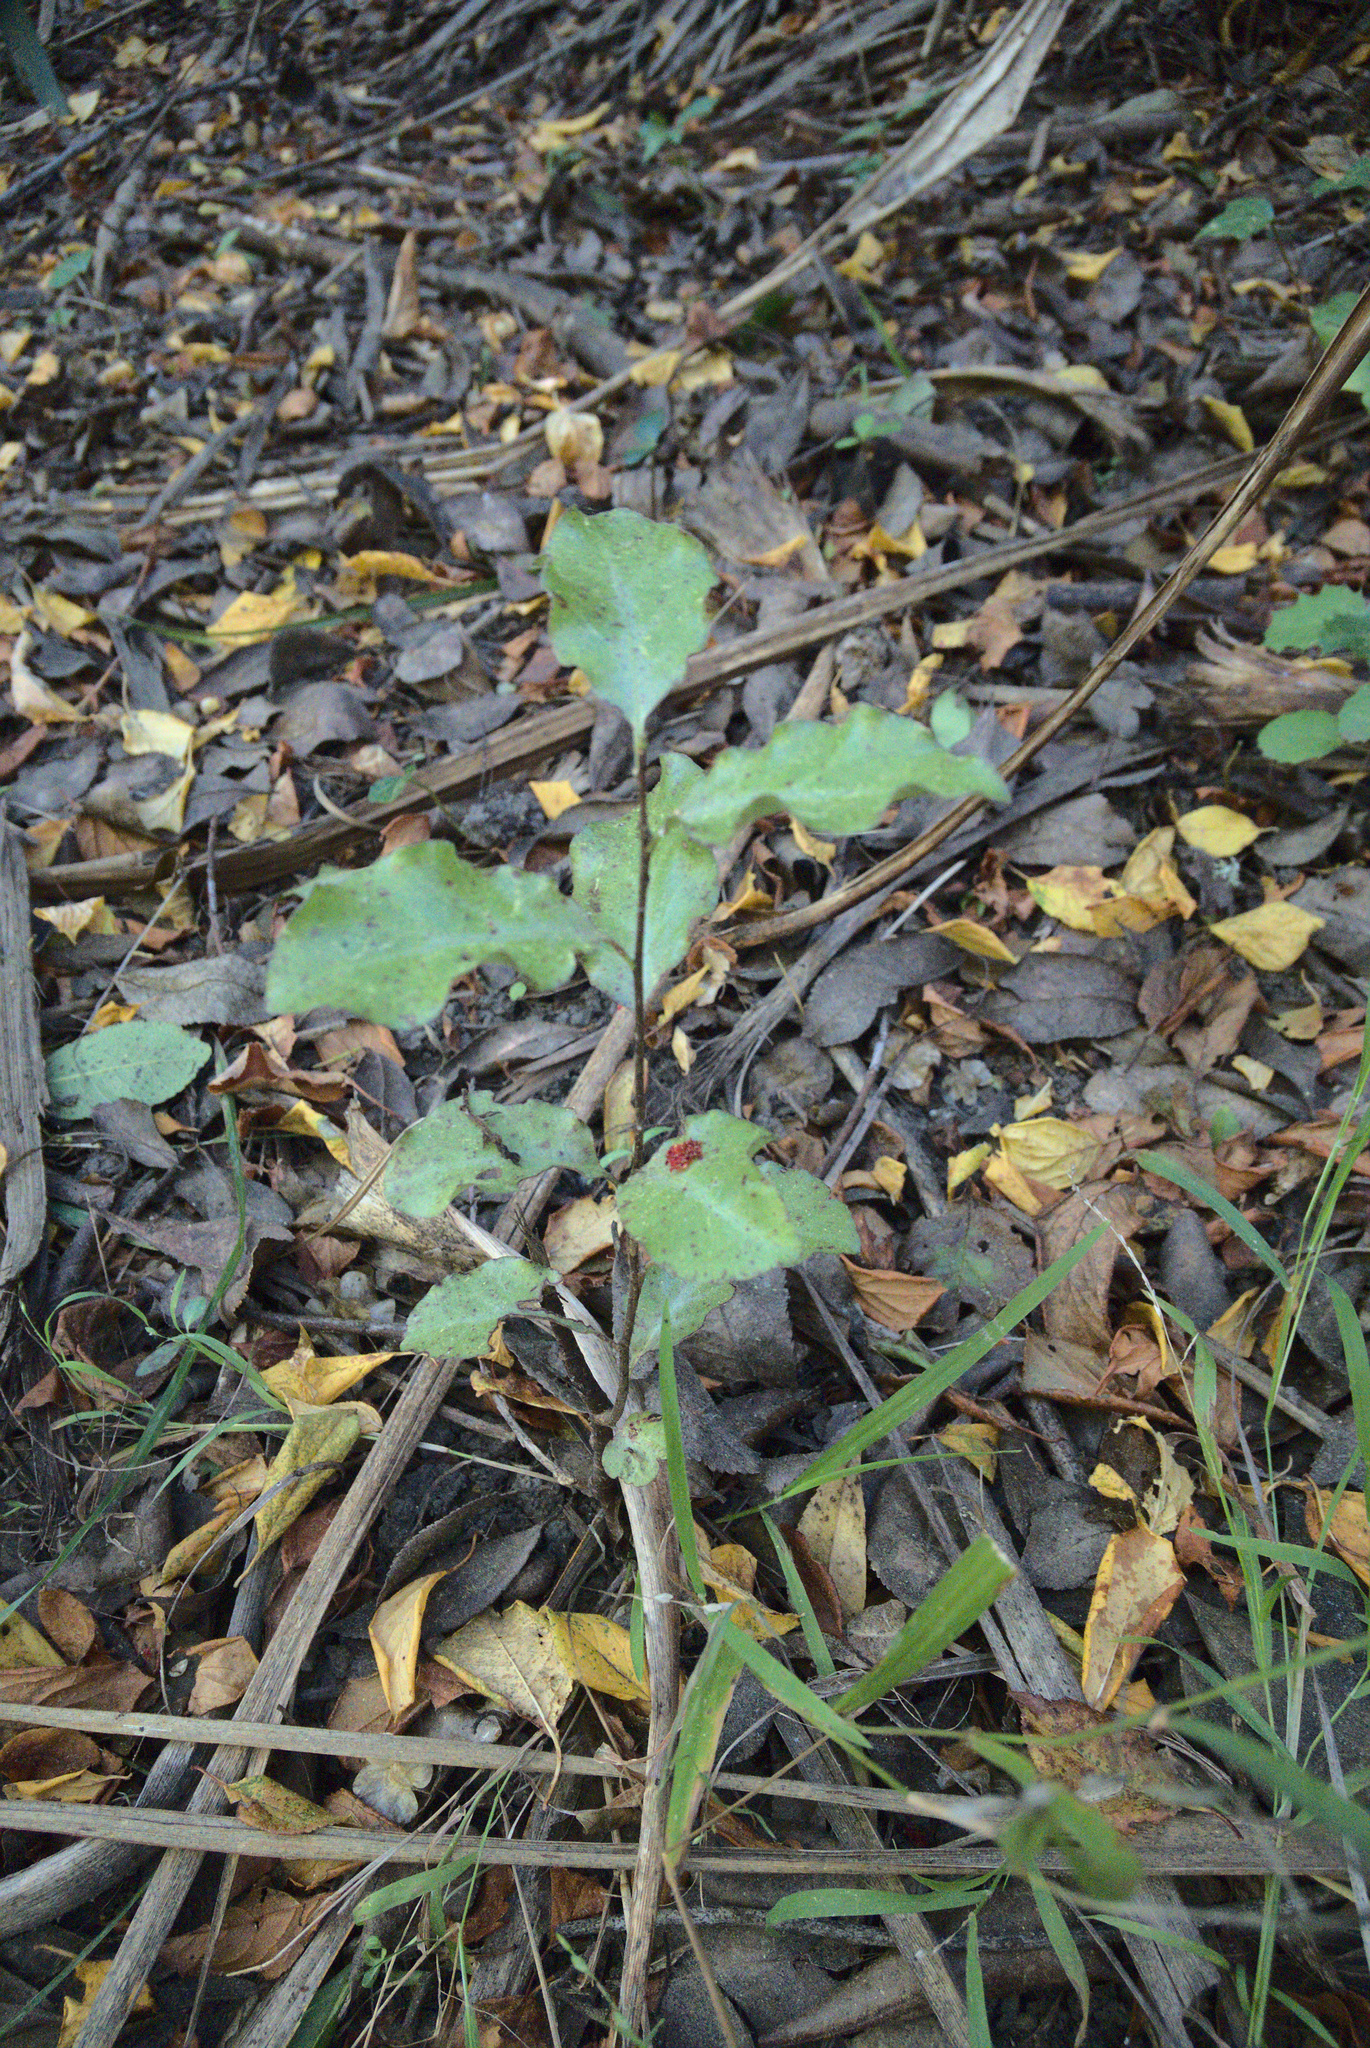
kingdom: Plantae
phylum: Tracheophyta
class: Magnoliopsida
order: Apiales
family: Pittosporaceae
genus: Pittosporum
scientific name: Pittosporum tenuifolium
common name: Kohuhu
